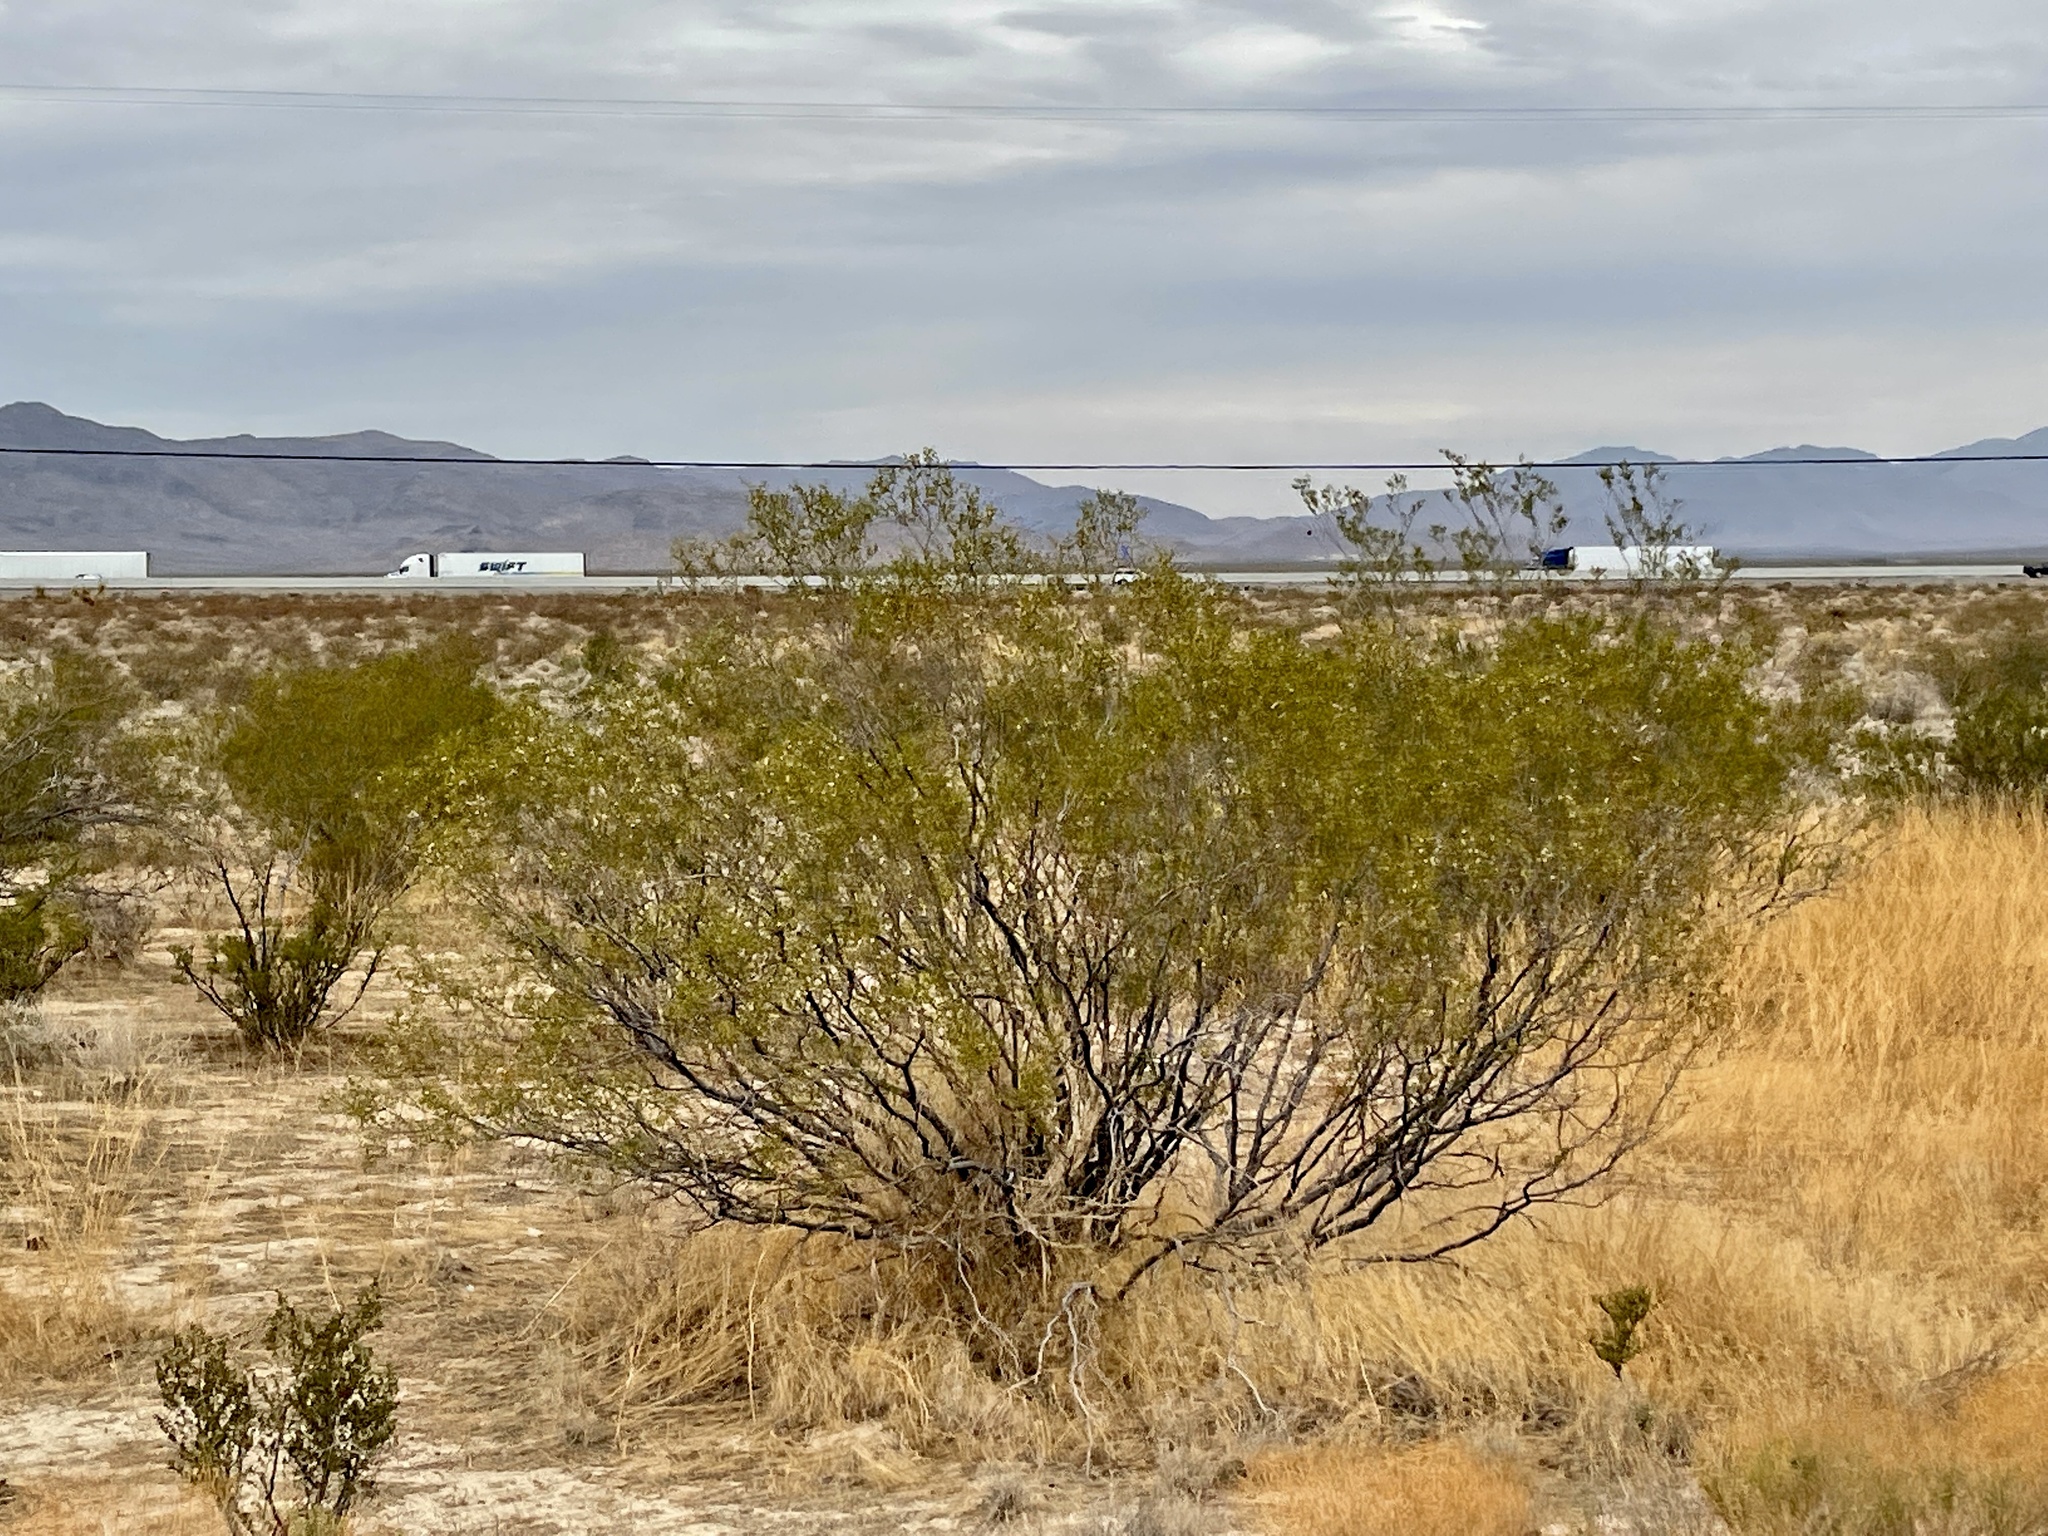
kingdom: Plantae
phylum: Tracheophyta
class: Magnoliopsida
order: Zygophyllales
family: Zygophyllaceae
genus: Larrea
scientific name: Larrea tridentata
